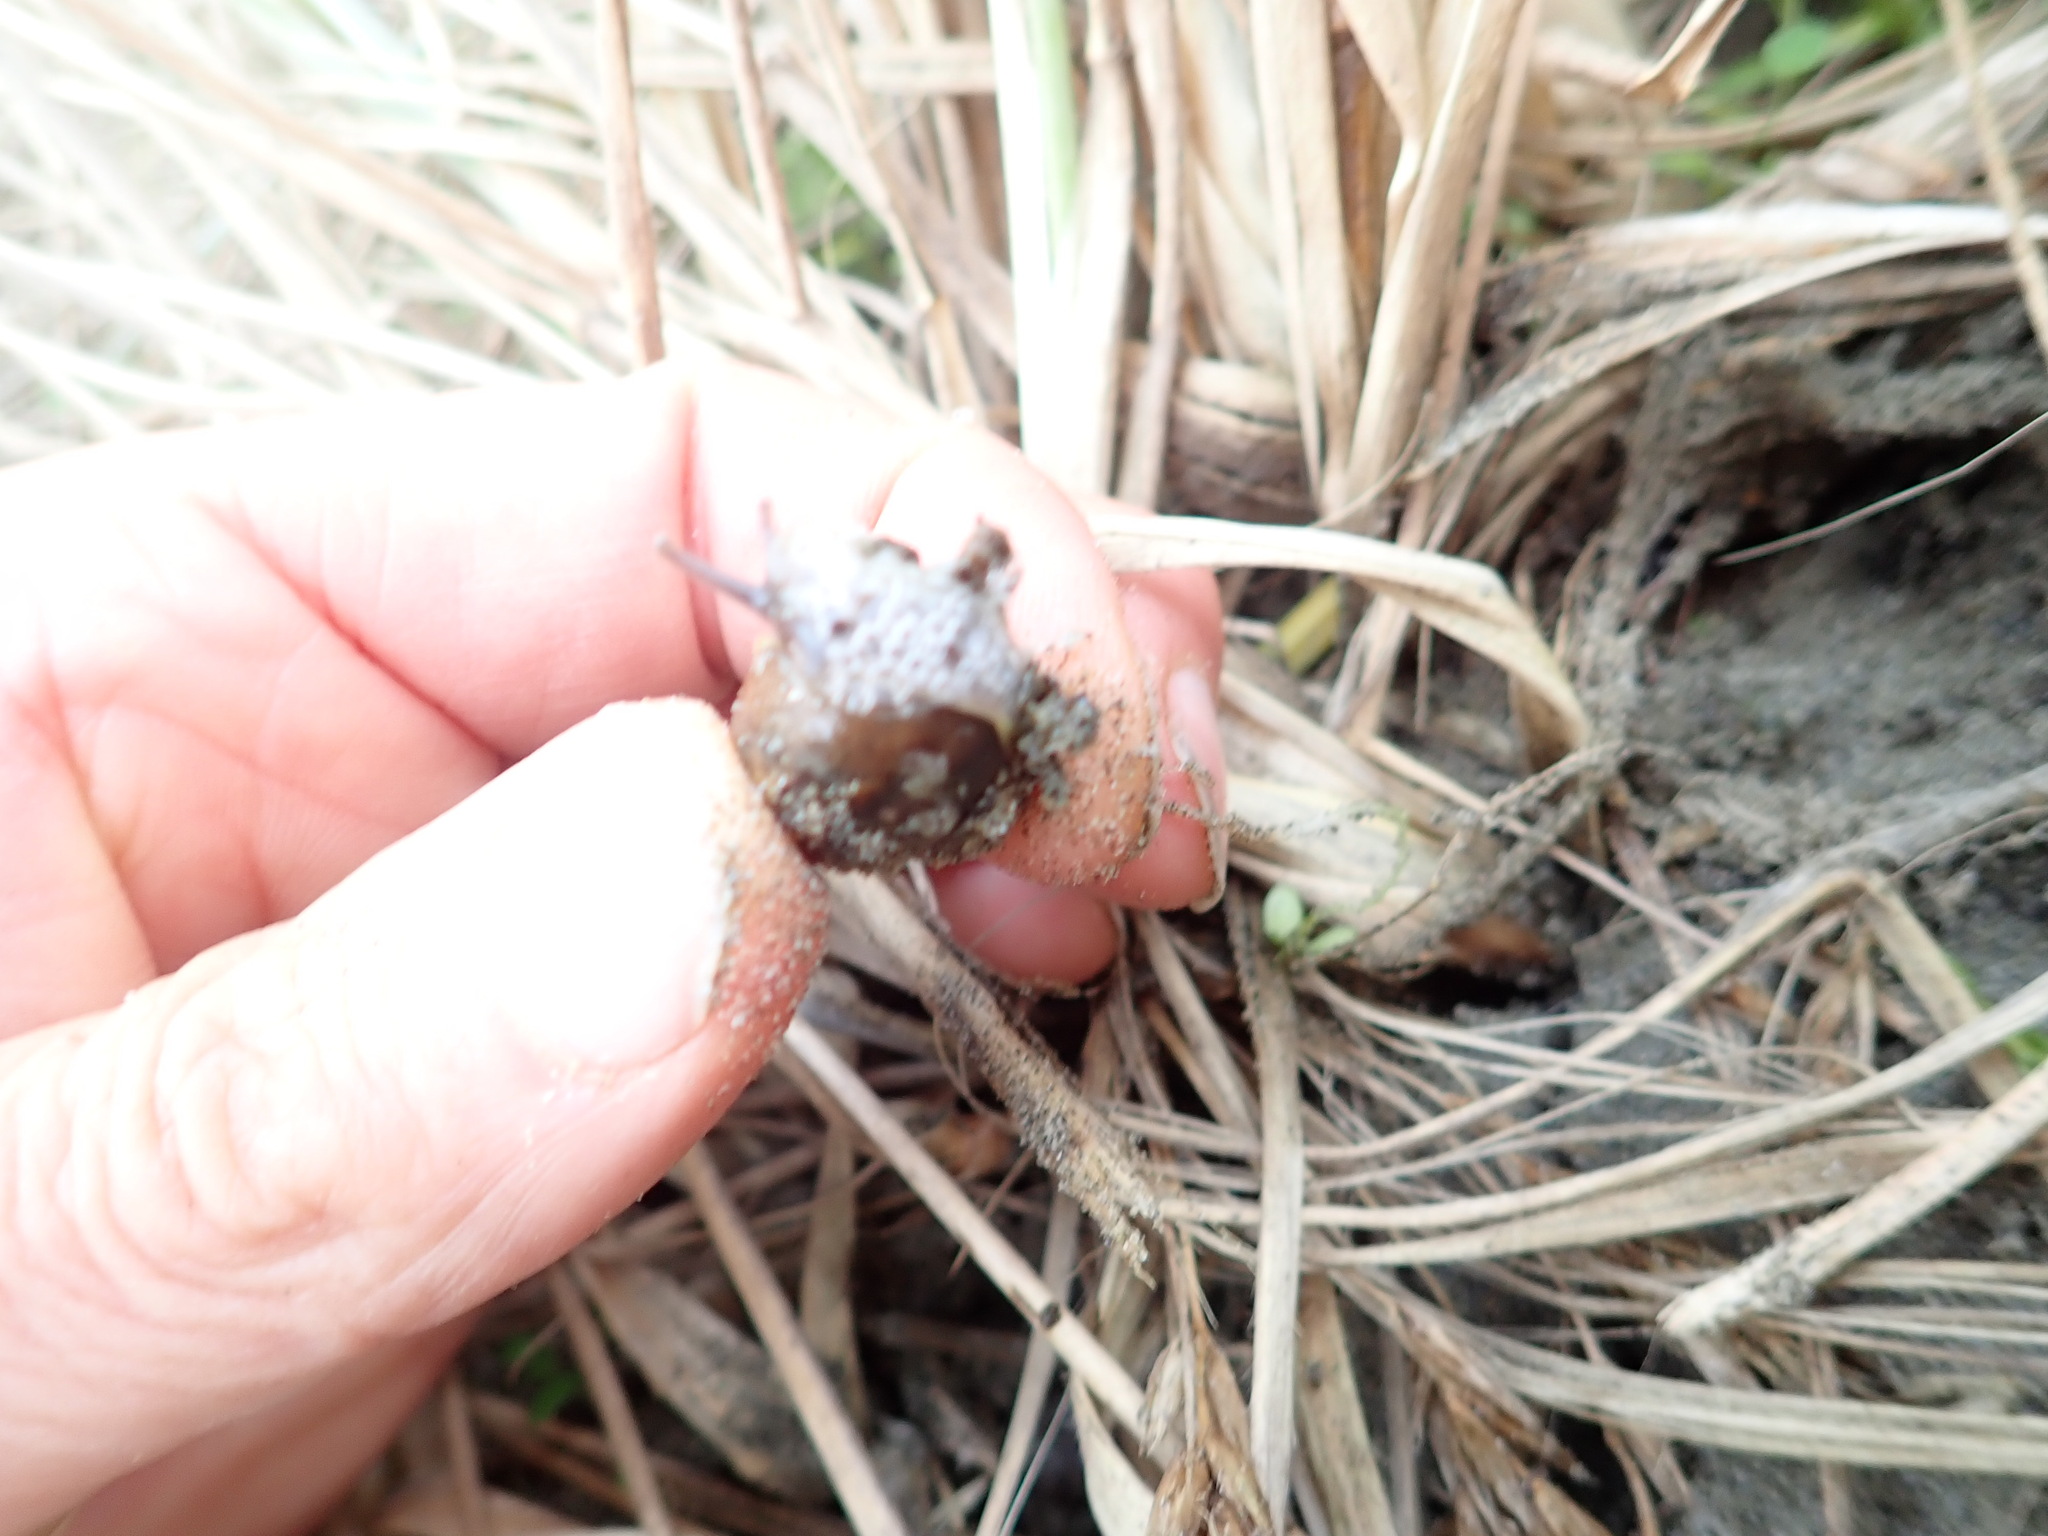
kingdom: Animalia
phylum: Mollusca
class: Gastropoda
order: Stylommatophora
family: Helicidae
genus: Cornu
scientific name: Cornu aspersum
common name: Brown garden snail
